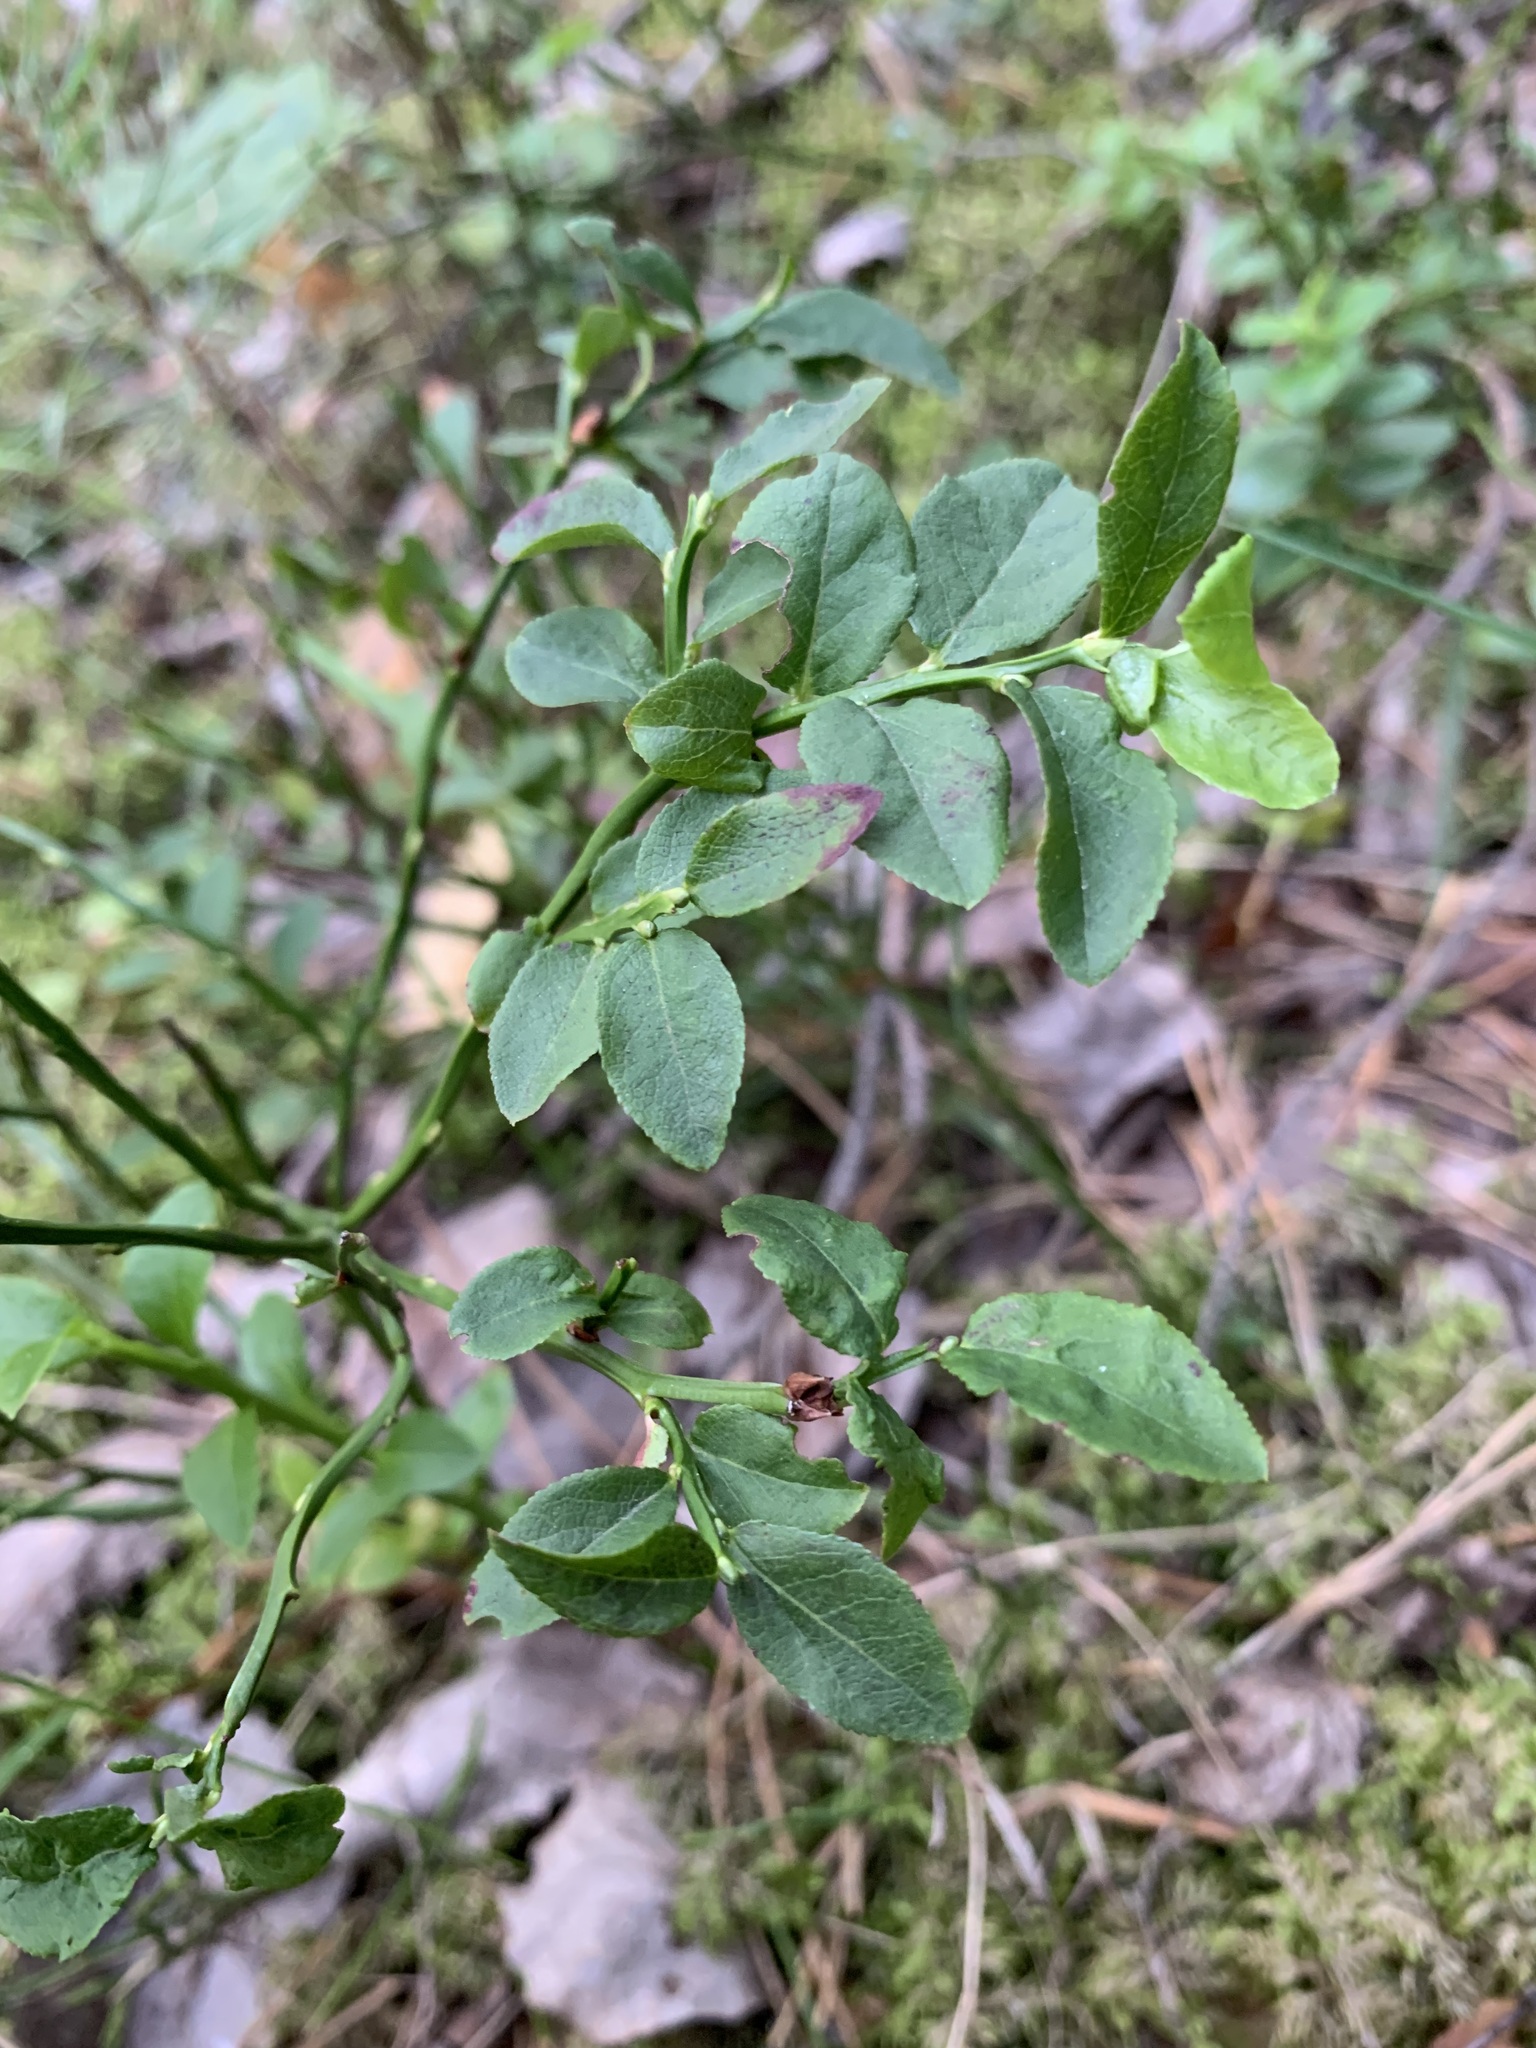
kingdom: Plantae
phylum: Tracheophyta
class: Magnoliopsida
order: Ericales
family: Ericaceae
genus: Vaccinium
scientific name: Vaccinium myrtillus
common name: Bilberry
